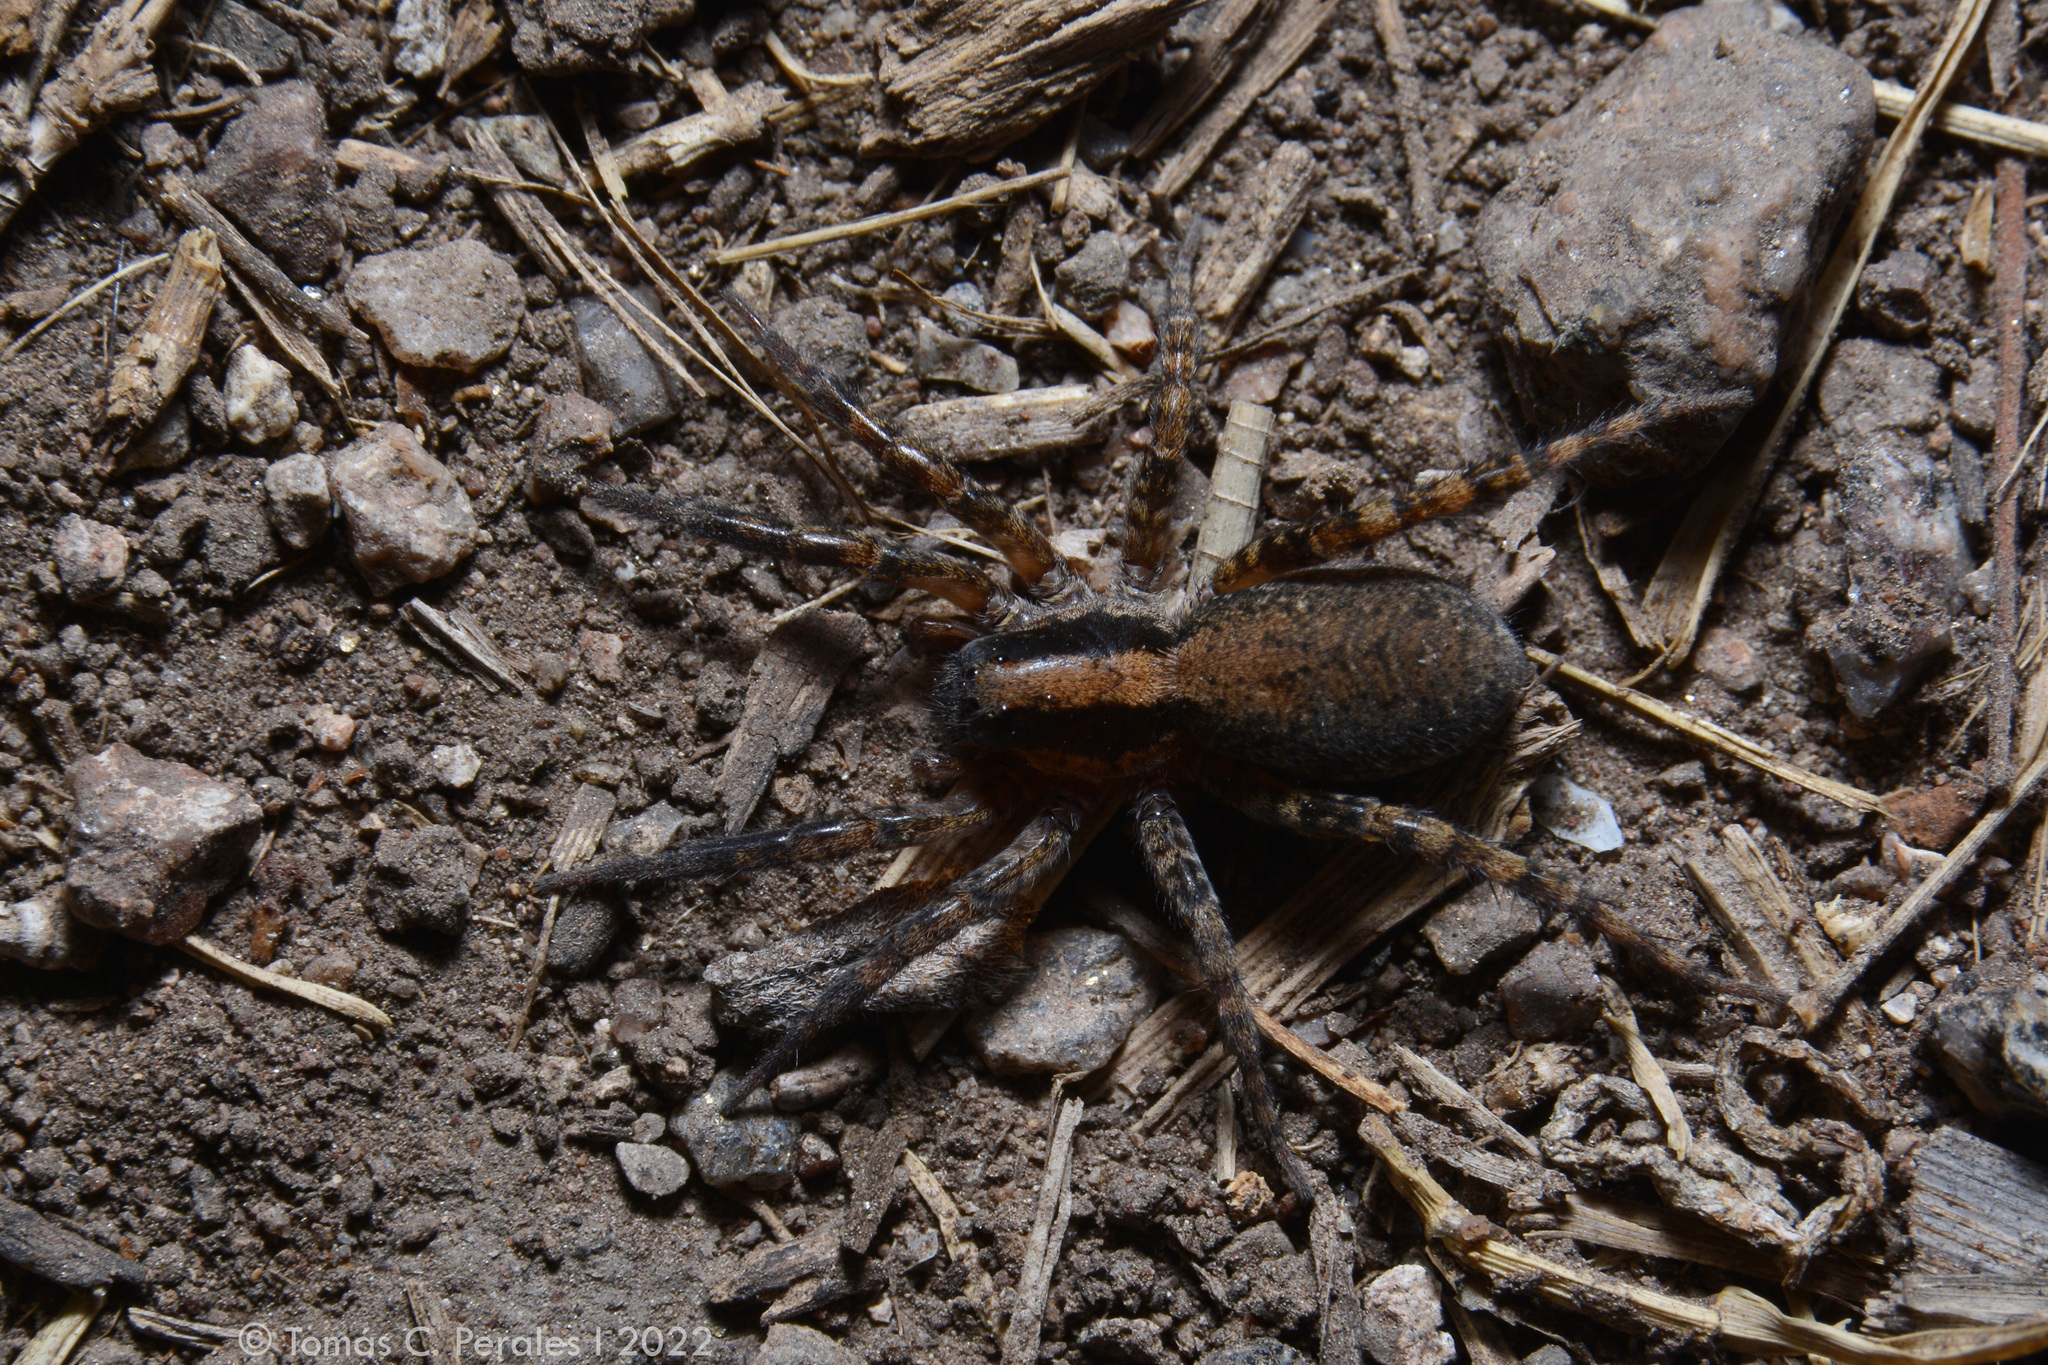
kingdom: Animalia
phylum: Arthropoda
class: Arachnida
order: Araneae
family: Lycosidae
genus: Birabenia
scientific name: Birabenia birabenae
